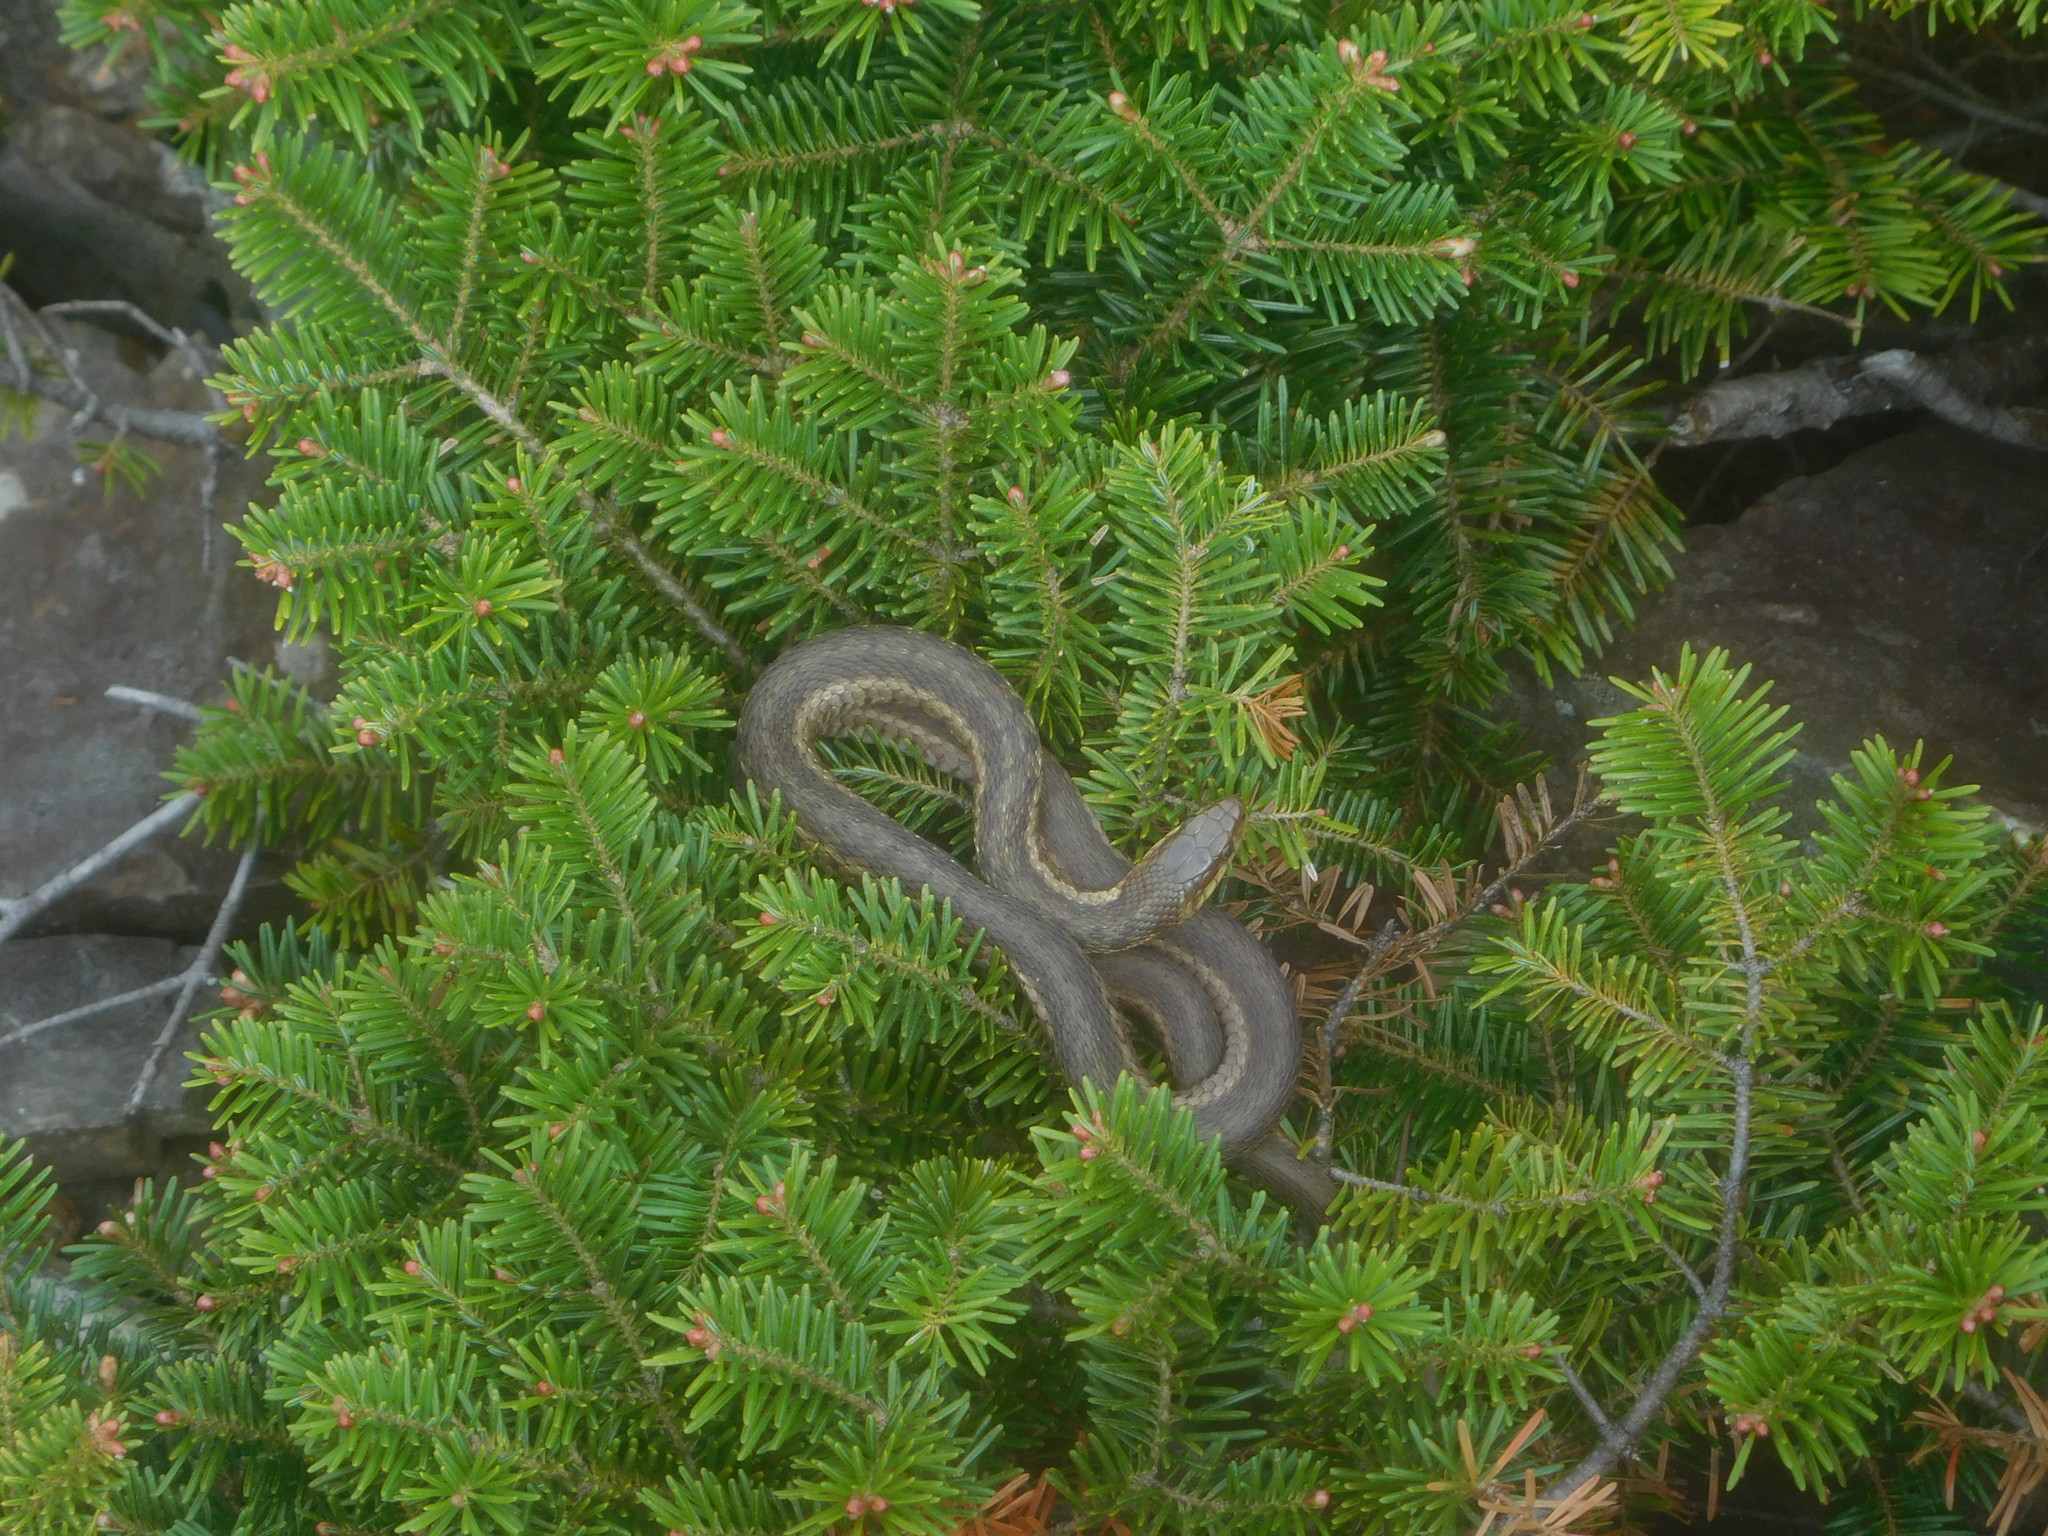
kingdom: Animalia
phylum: Chordata
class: Squamata
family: Colubridae
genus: Thamnophis
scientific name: Thamnophis sirtalis
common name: Common garter snake
